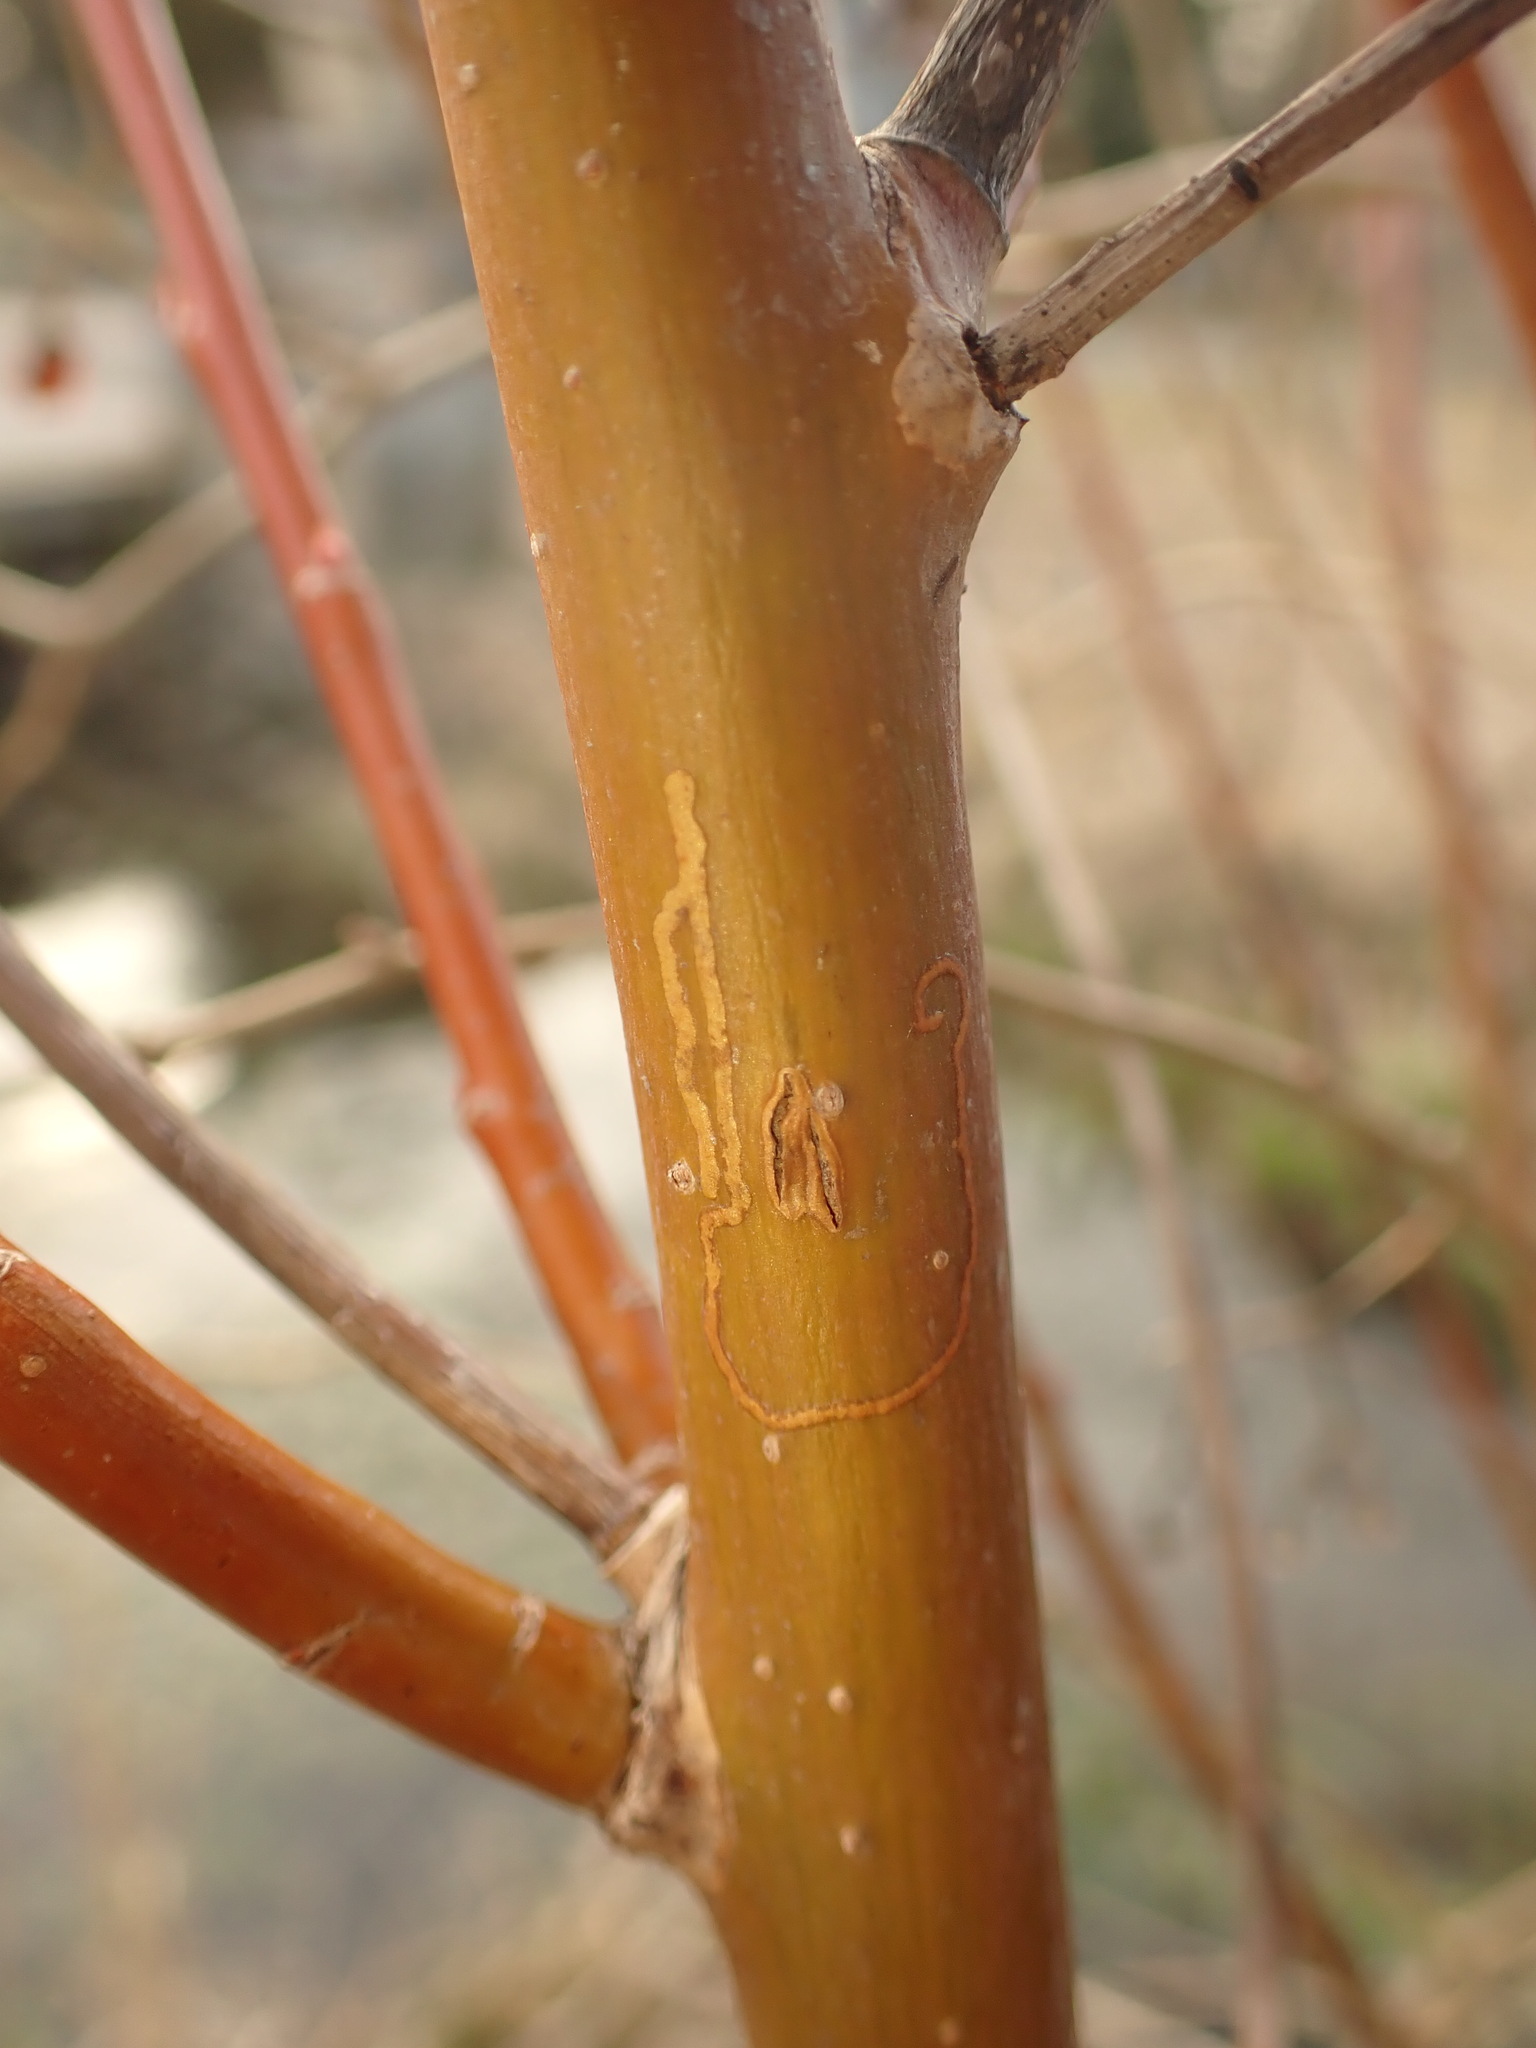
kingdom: Animalia
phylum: Arthropoda
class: Insecta
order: Lepidoptera
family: Gracillariidae
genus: Marmara
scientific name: Marmara salictella
